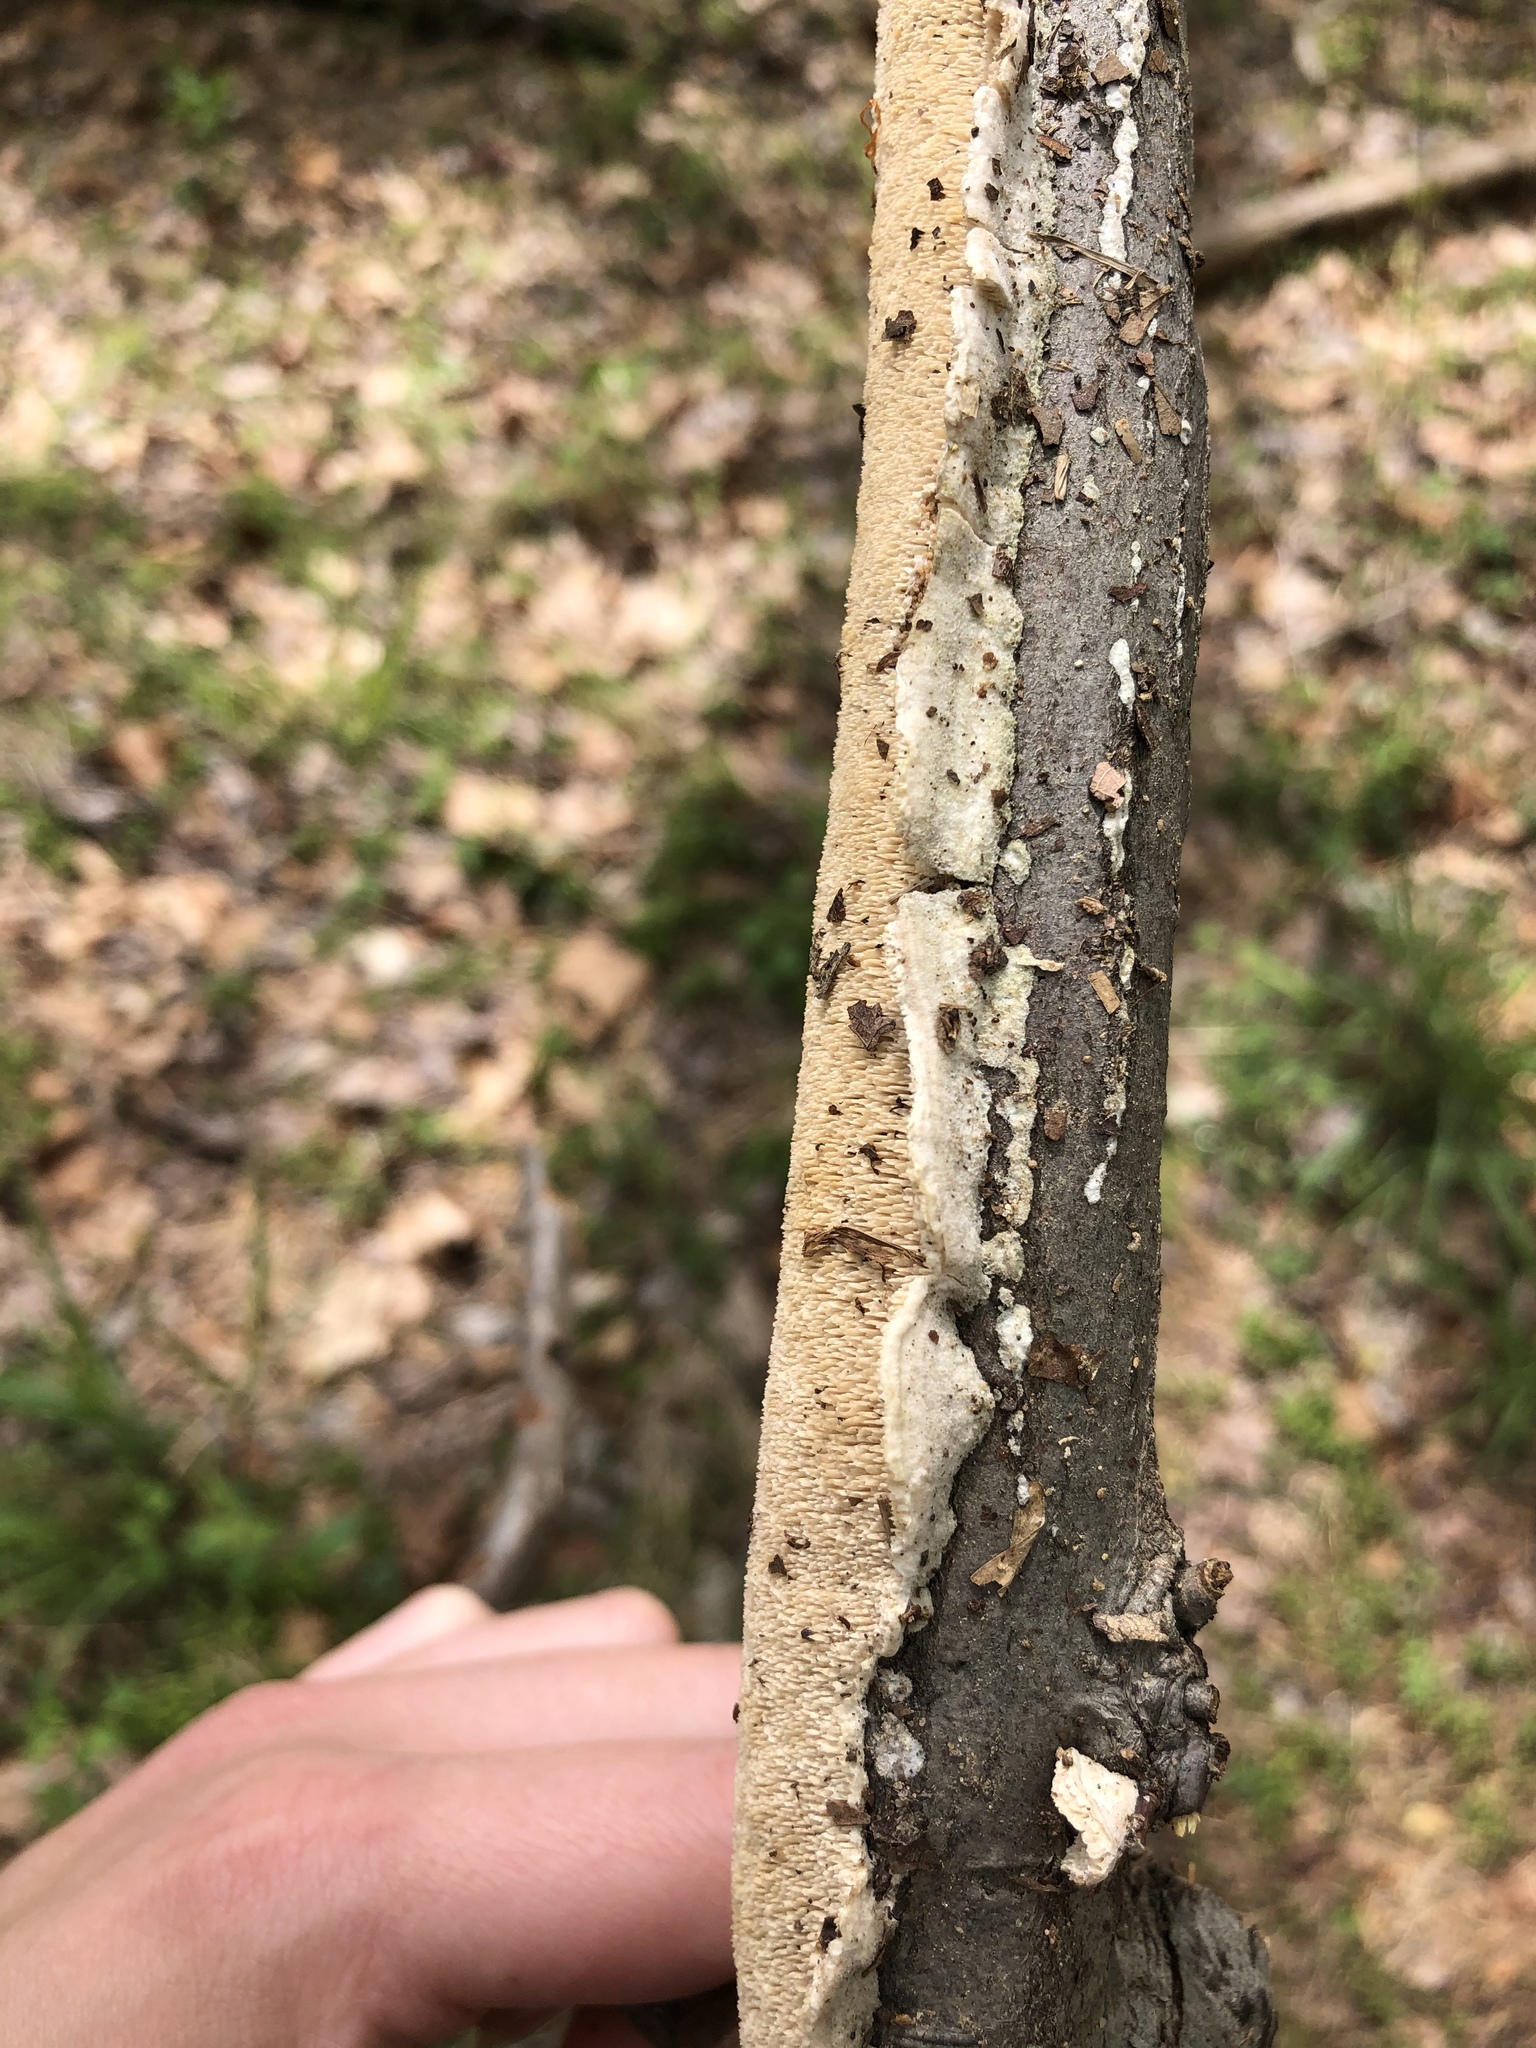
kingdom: Fungi
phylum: Basidiomycota
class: Agaricomycetes
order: Polyporales
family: Irpicaceae
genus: Irpex
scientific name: Irpex lacteus
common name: Milk-white toothed polypore
